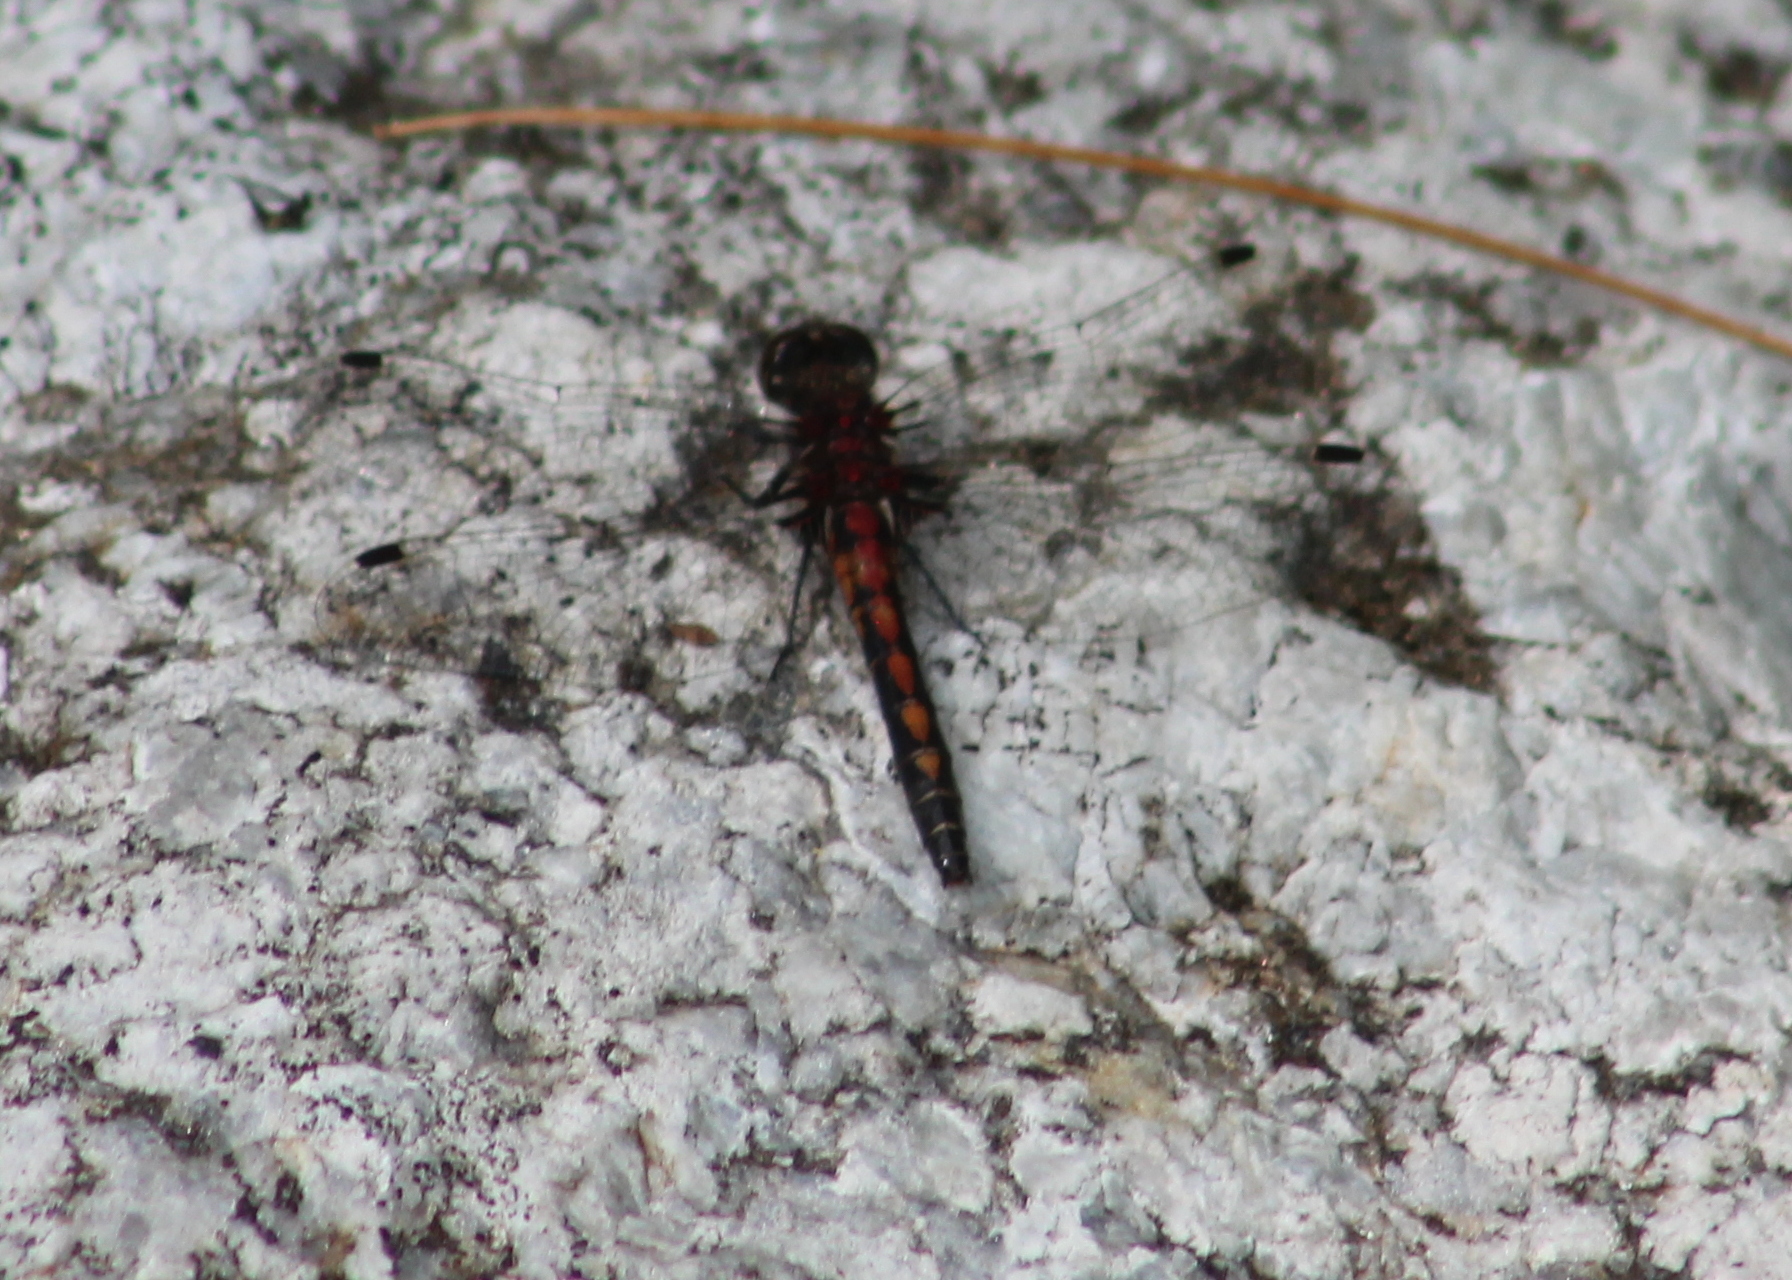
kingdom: Animalia
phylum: Arthropoda
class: Insecta
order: Odonata
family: Libellulidae
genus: Leucorrhinia
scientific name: Leucorrhinia hudsonica
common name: Hudsonian whiteface
